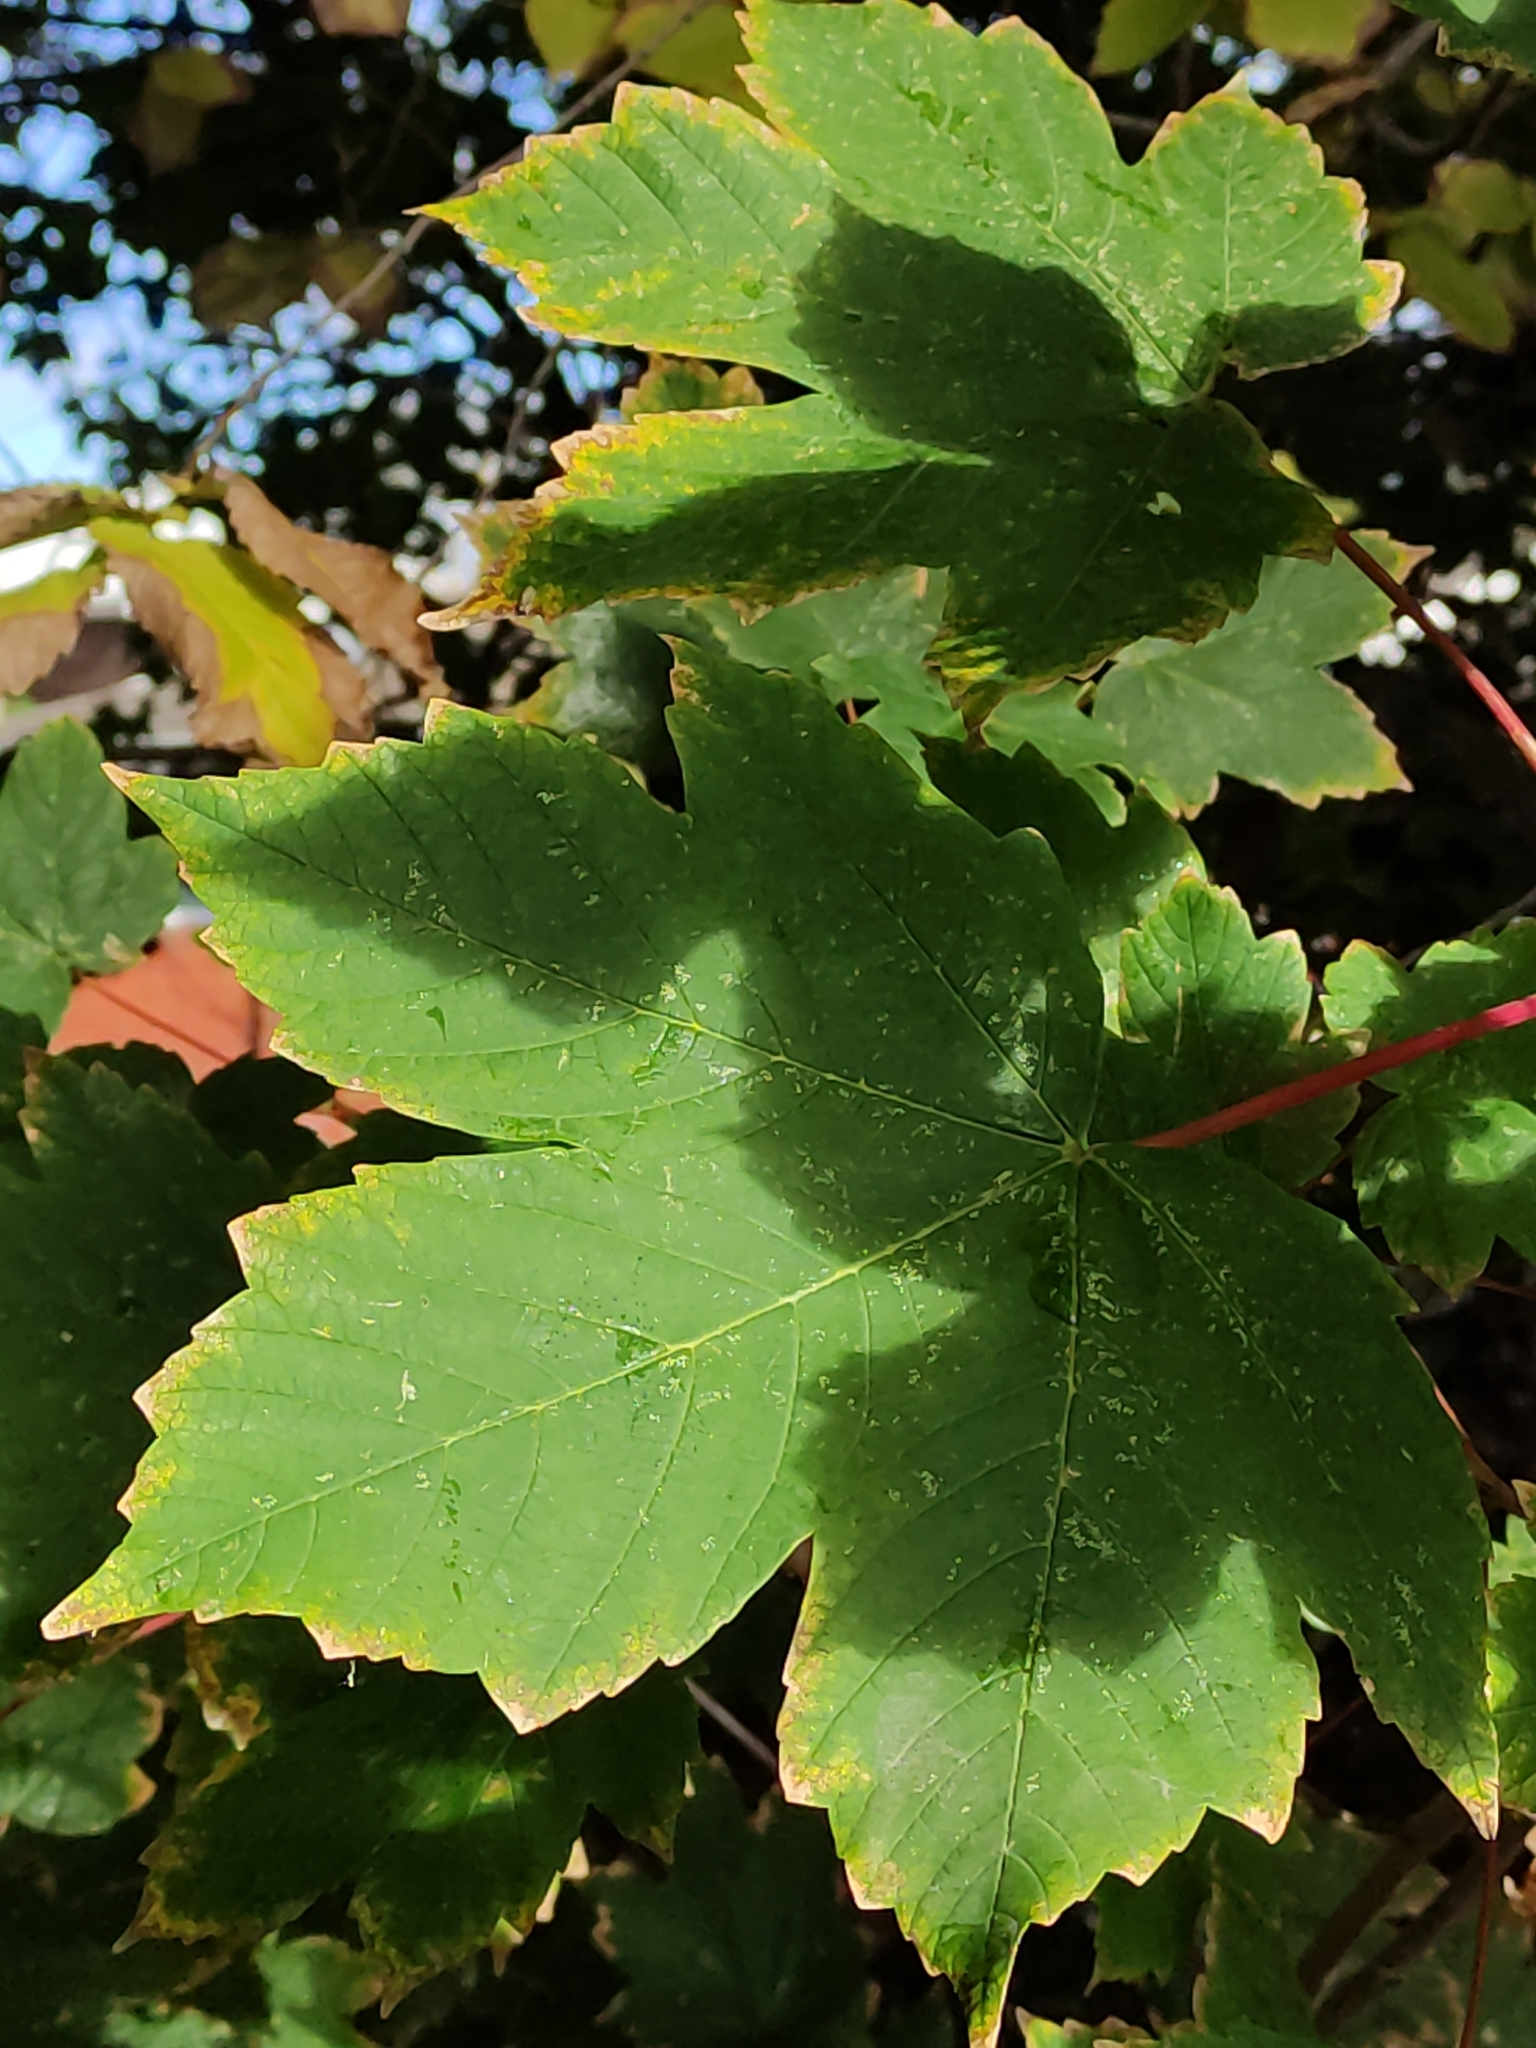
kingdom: Plantae
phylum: Tracheophyta
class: Magnoliopsida
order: Sapindales
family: Sapindaceae
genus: Acer
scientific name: Acer pseudoplatanus
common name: Sycamore
